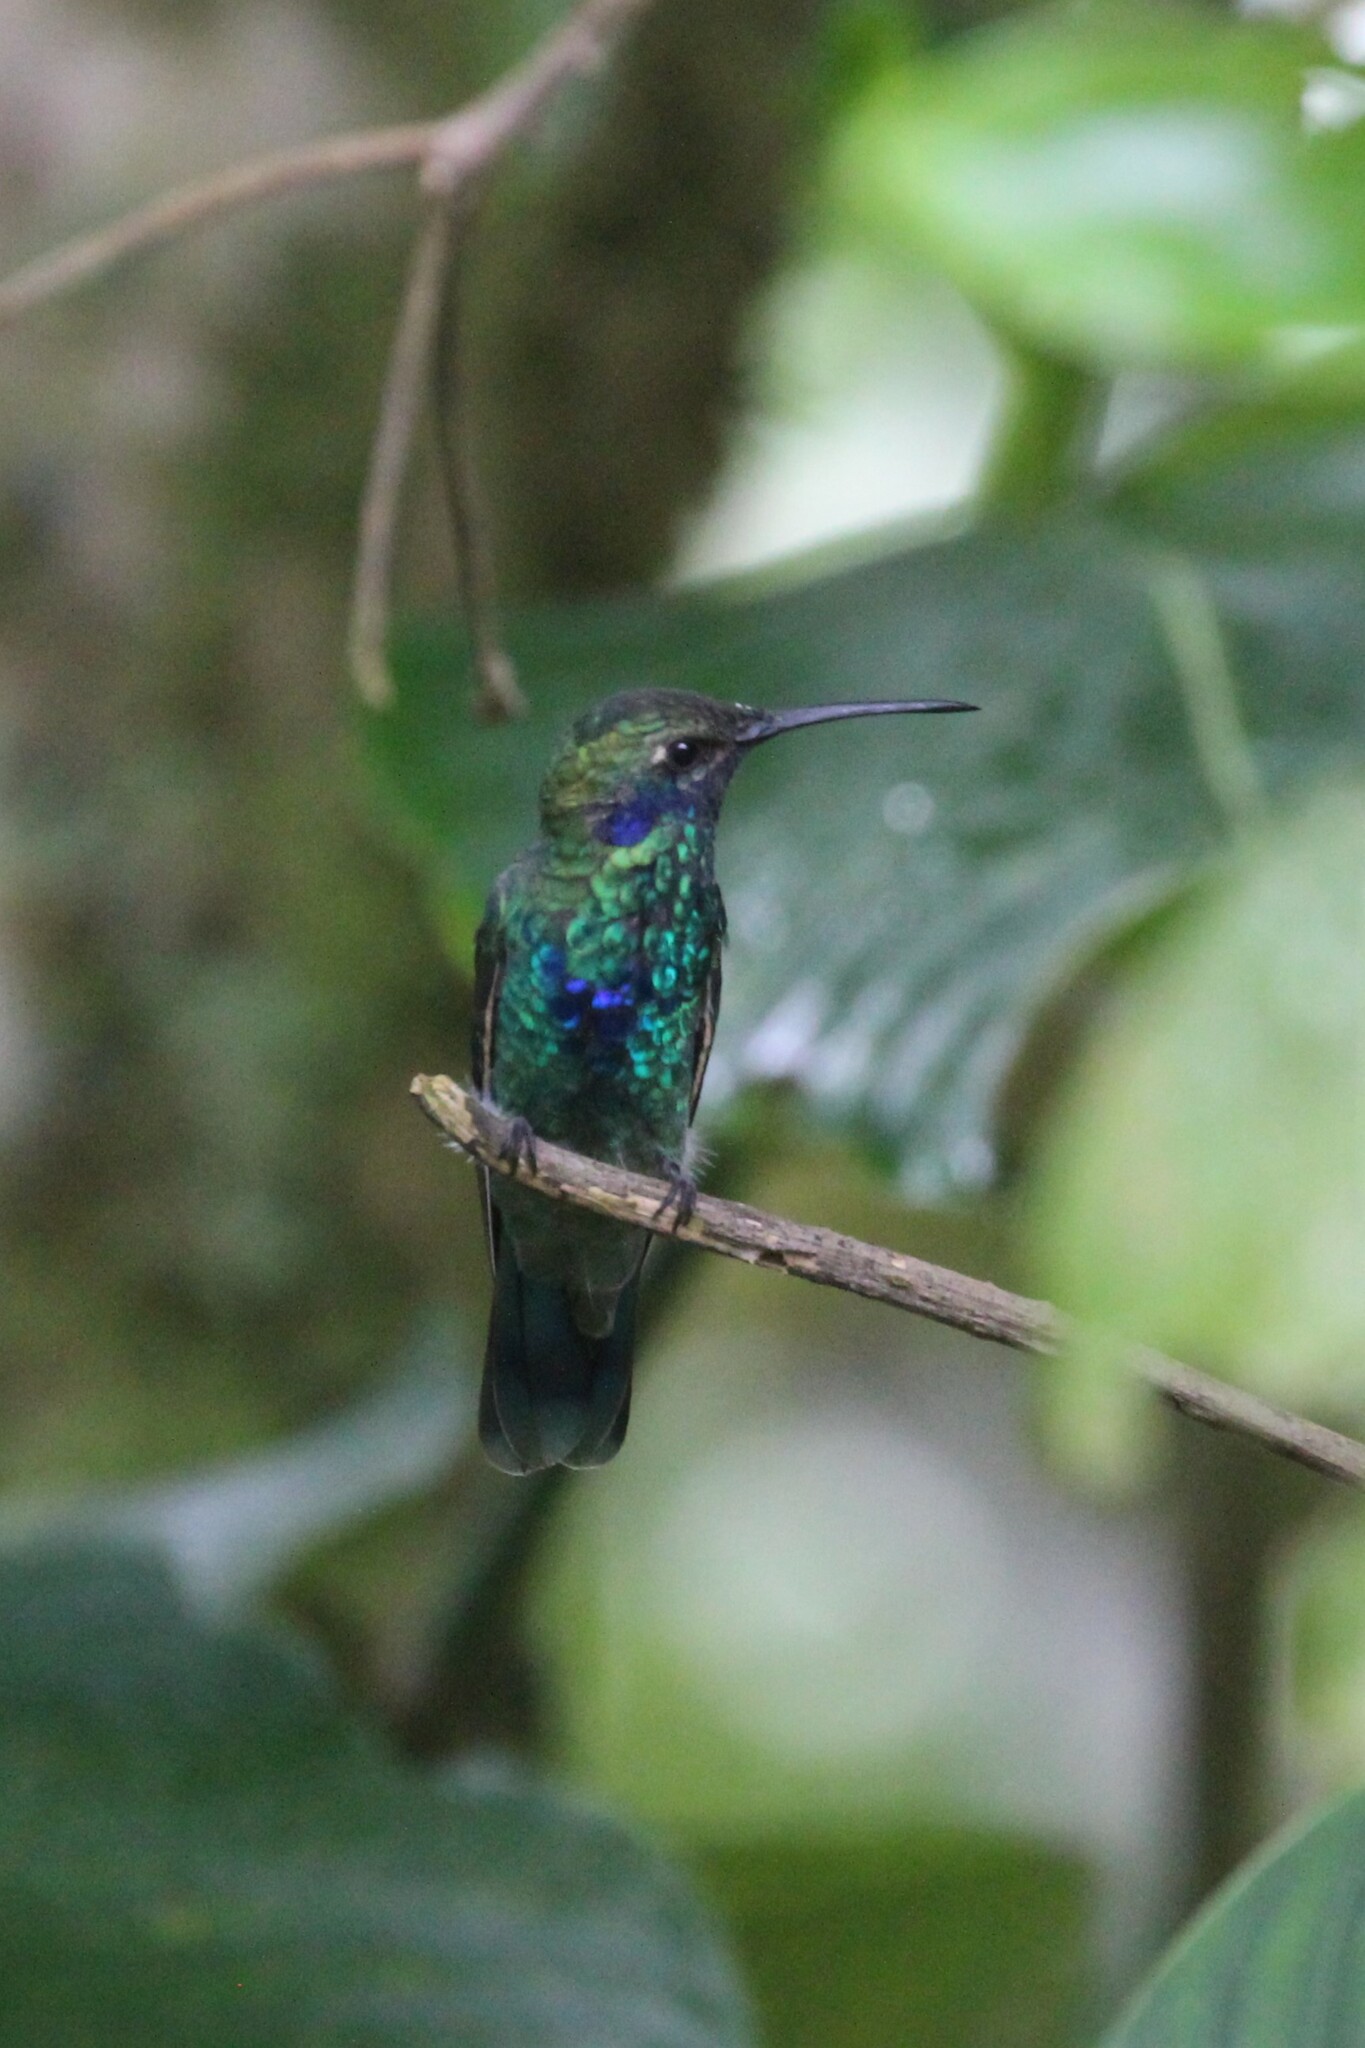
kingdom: Animalia
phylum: Chordata
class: Aves
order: Apodiformes
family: Trochilidae
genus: Colibri
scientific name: Colibri coruscans
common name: Sparkling violetear
